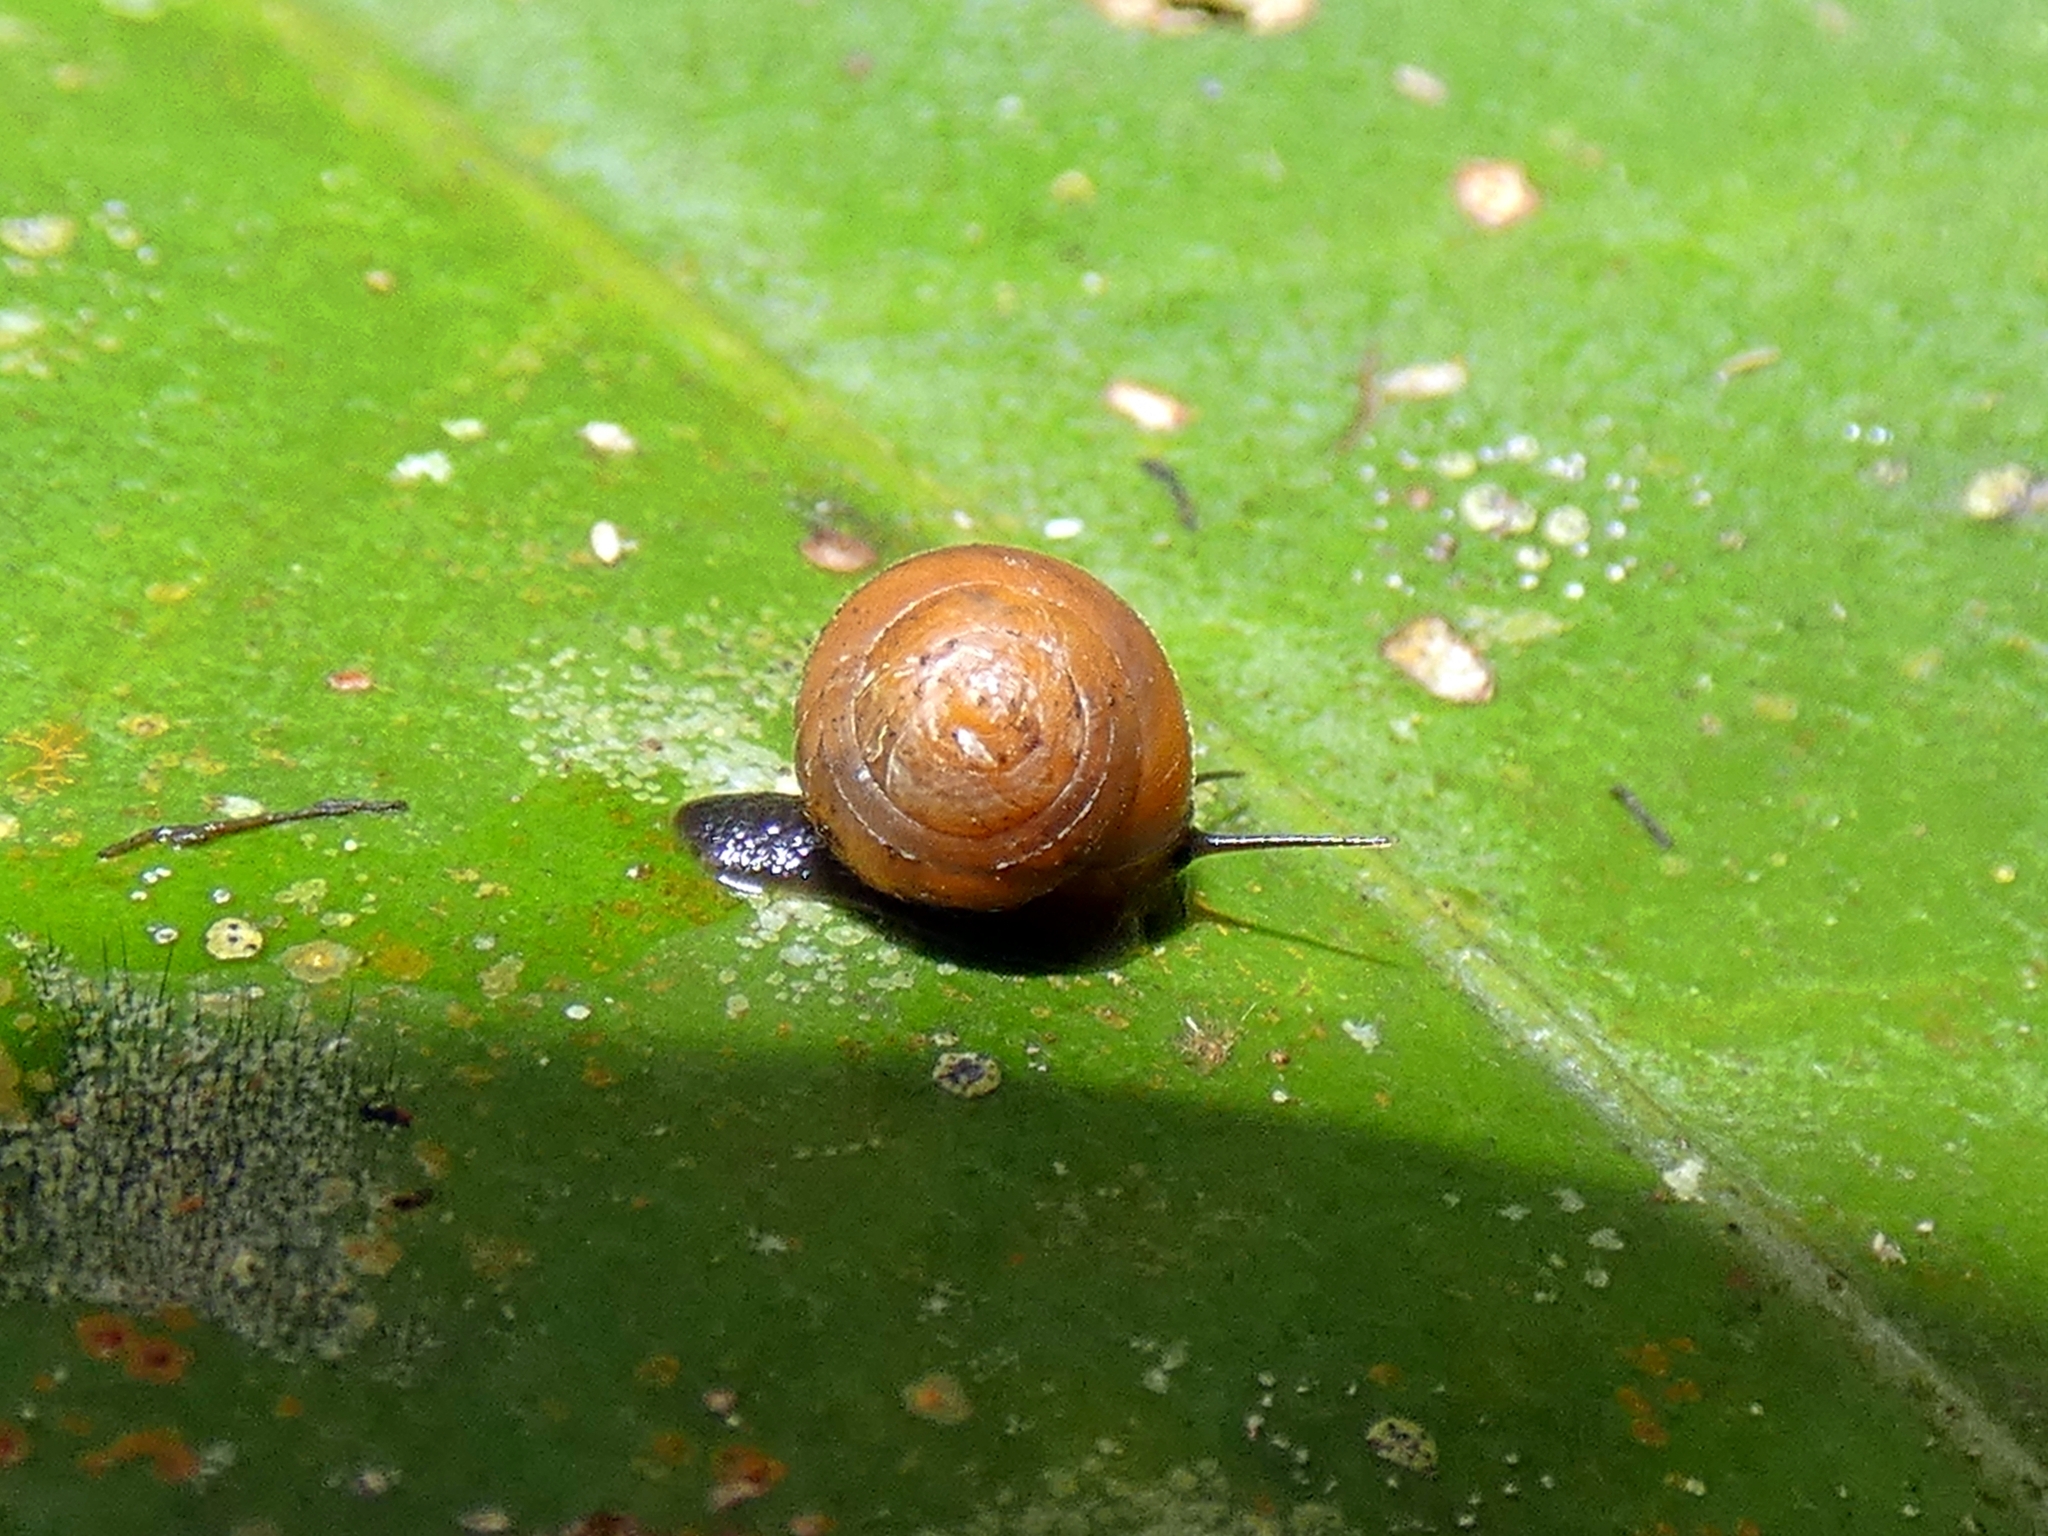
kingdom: Animalia
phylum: Mollusca
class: Gastropoda
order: Cycloneritida
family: Helicinidae
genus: Pleuropoma
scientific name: Pleuropoma gouldiana
